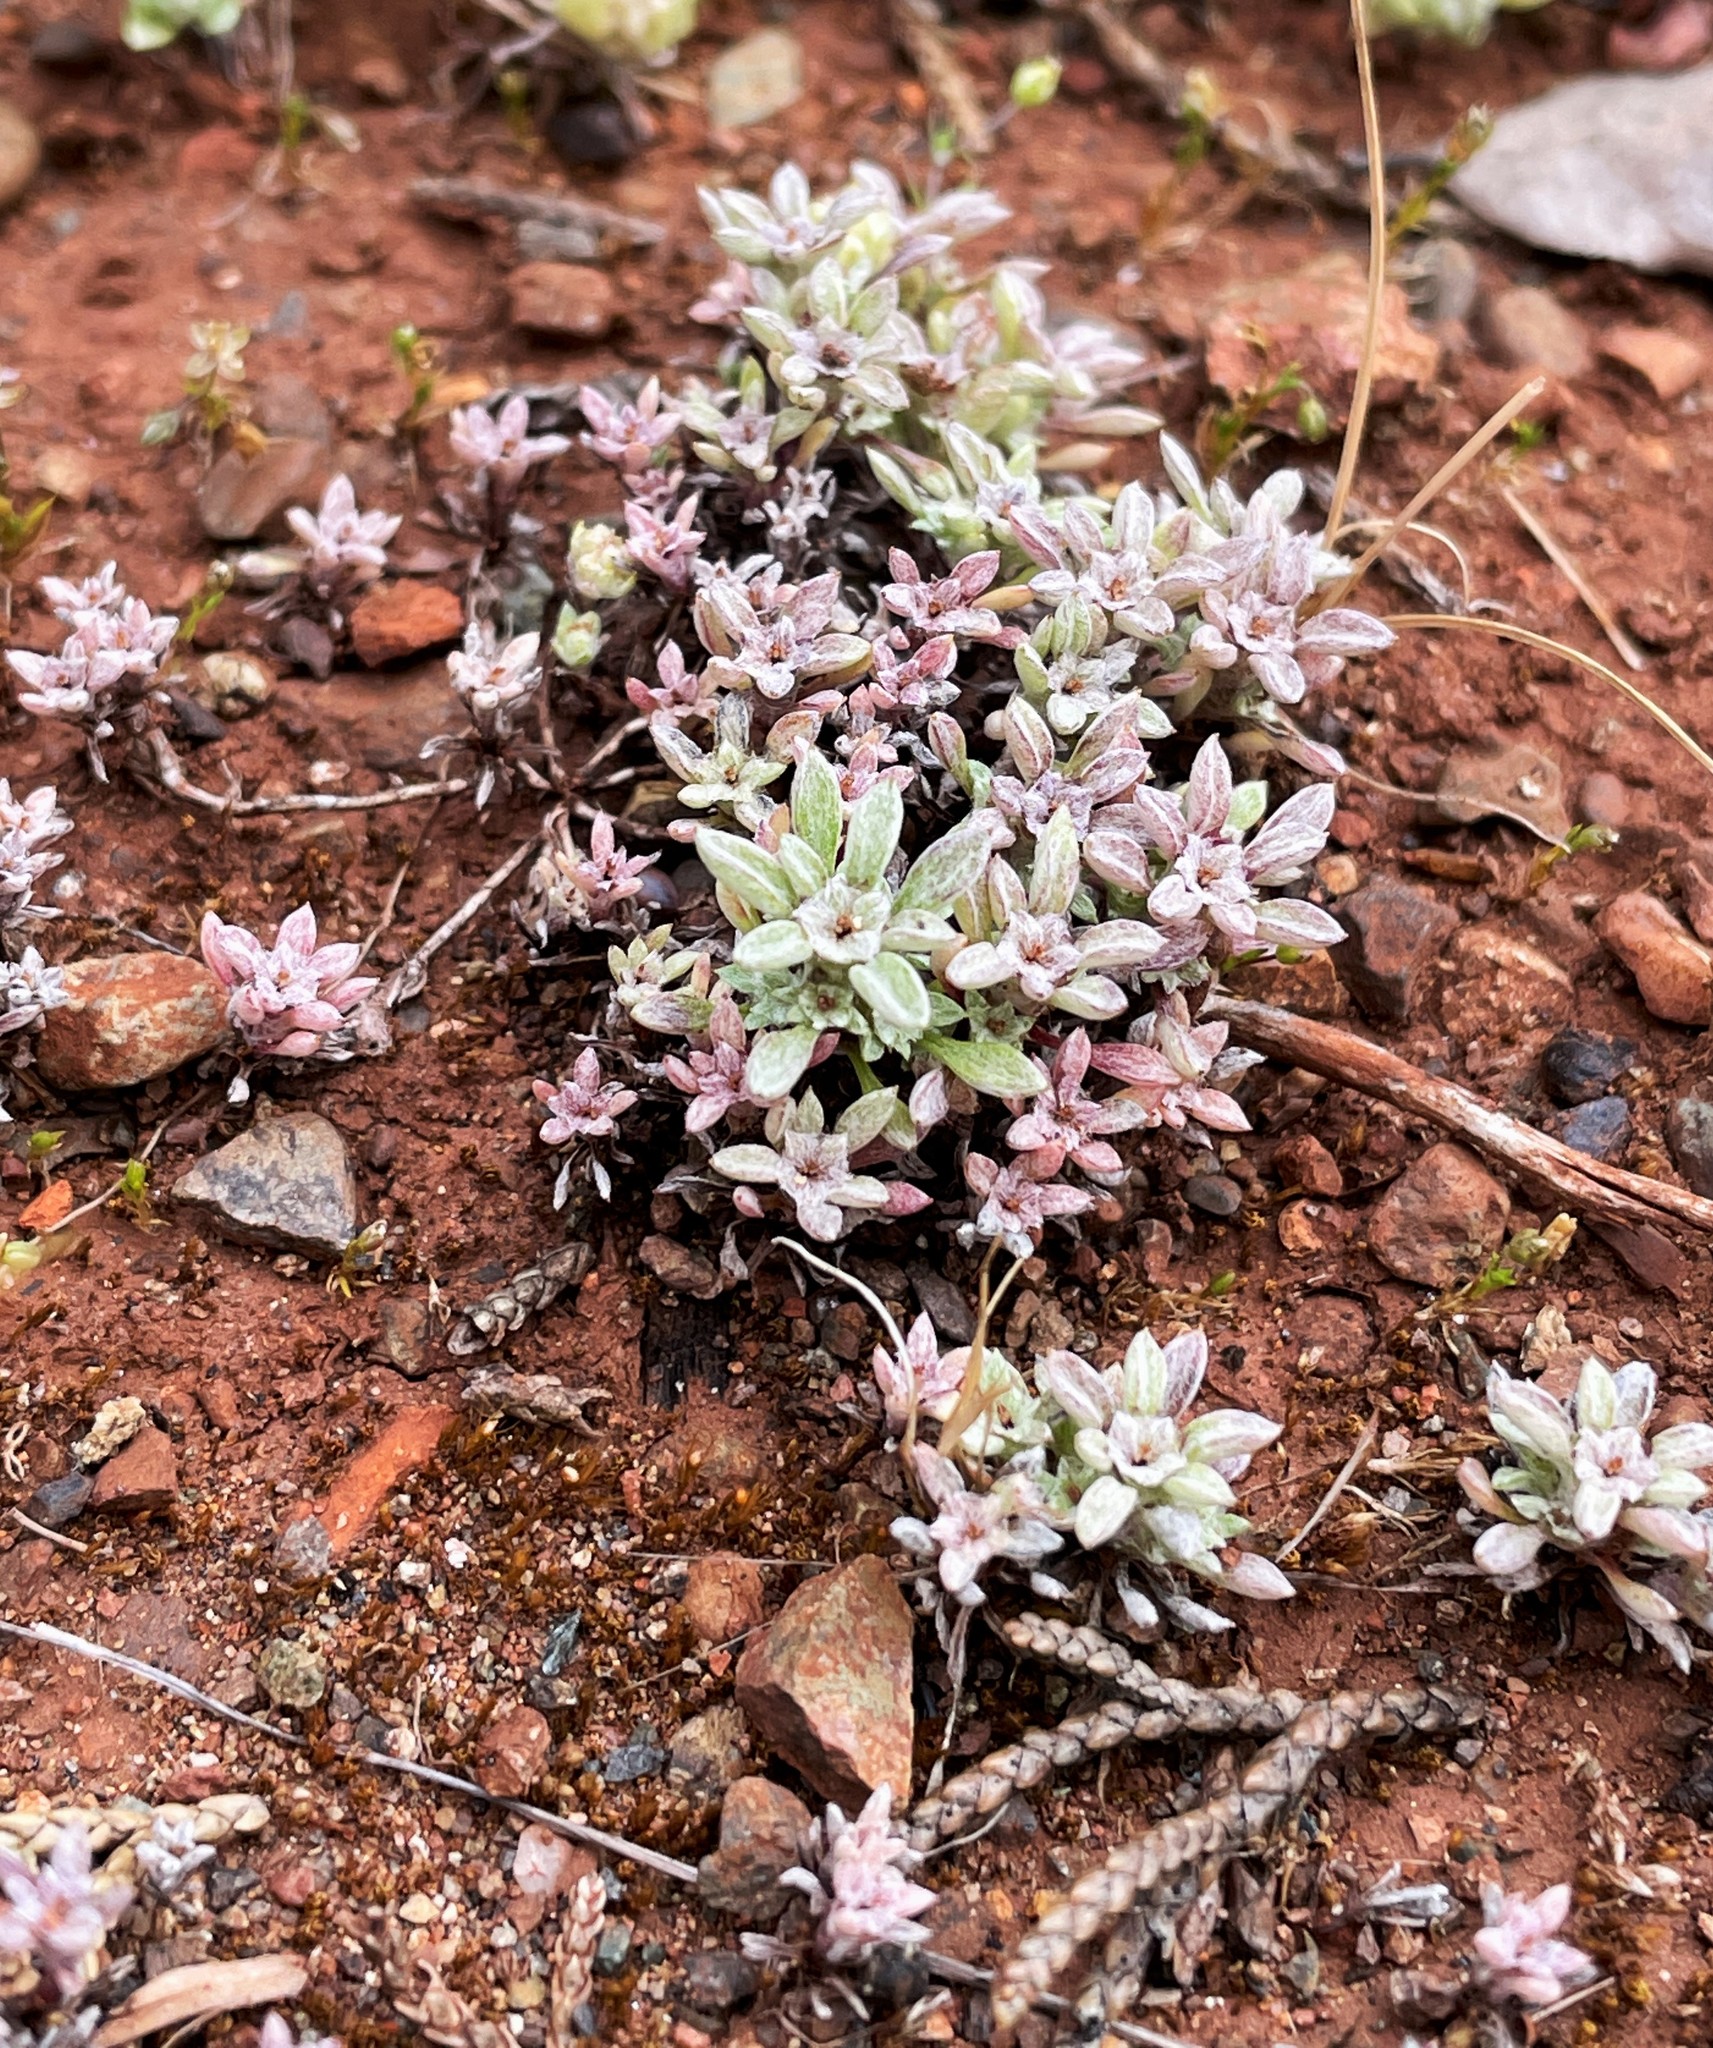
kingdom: Plantae
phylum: Tracheophyta
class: Magnoliopsida
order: Asterales
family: Asteraceae
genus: Hesperevax
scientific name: Hesperevax acaulis
